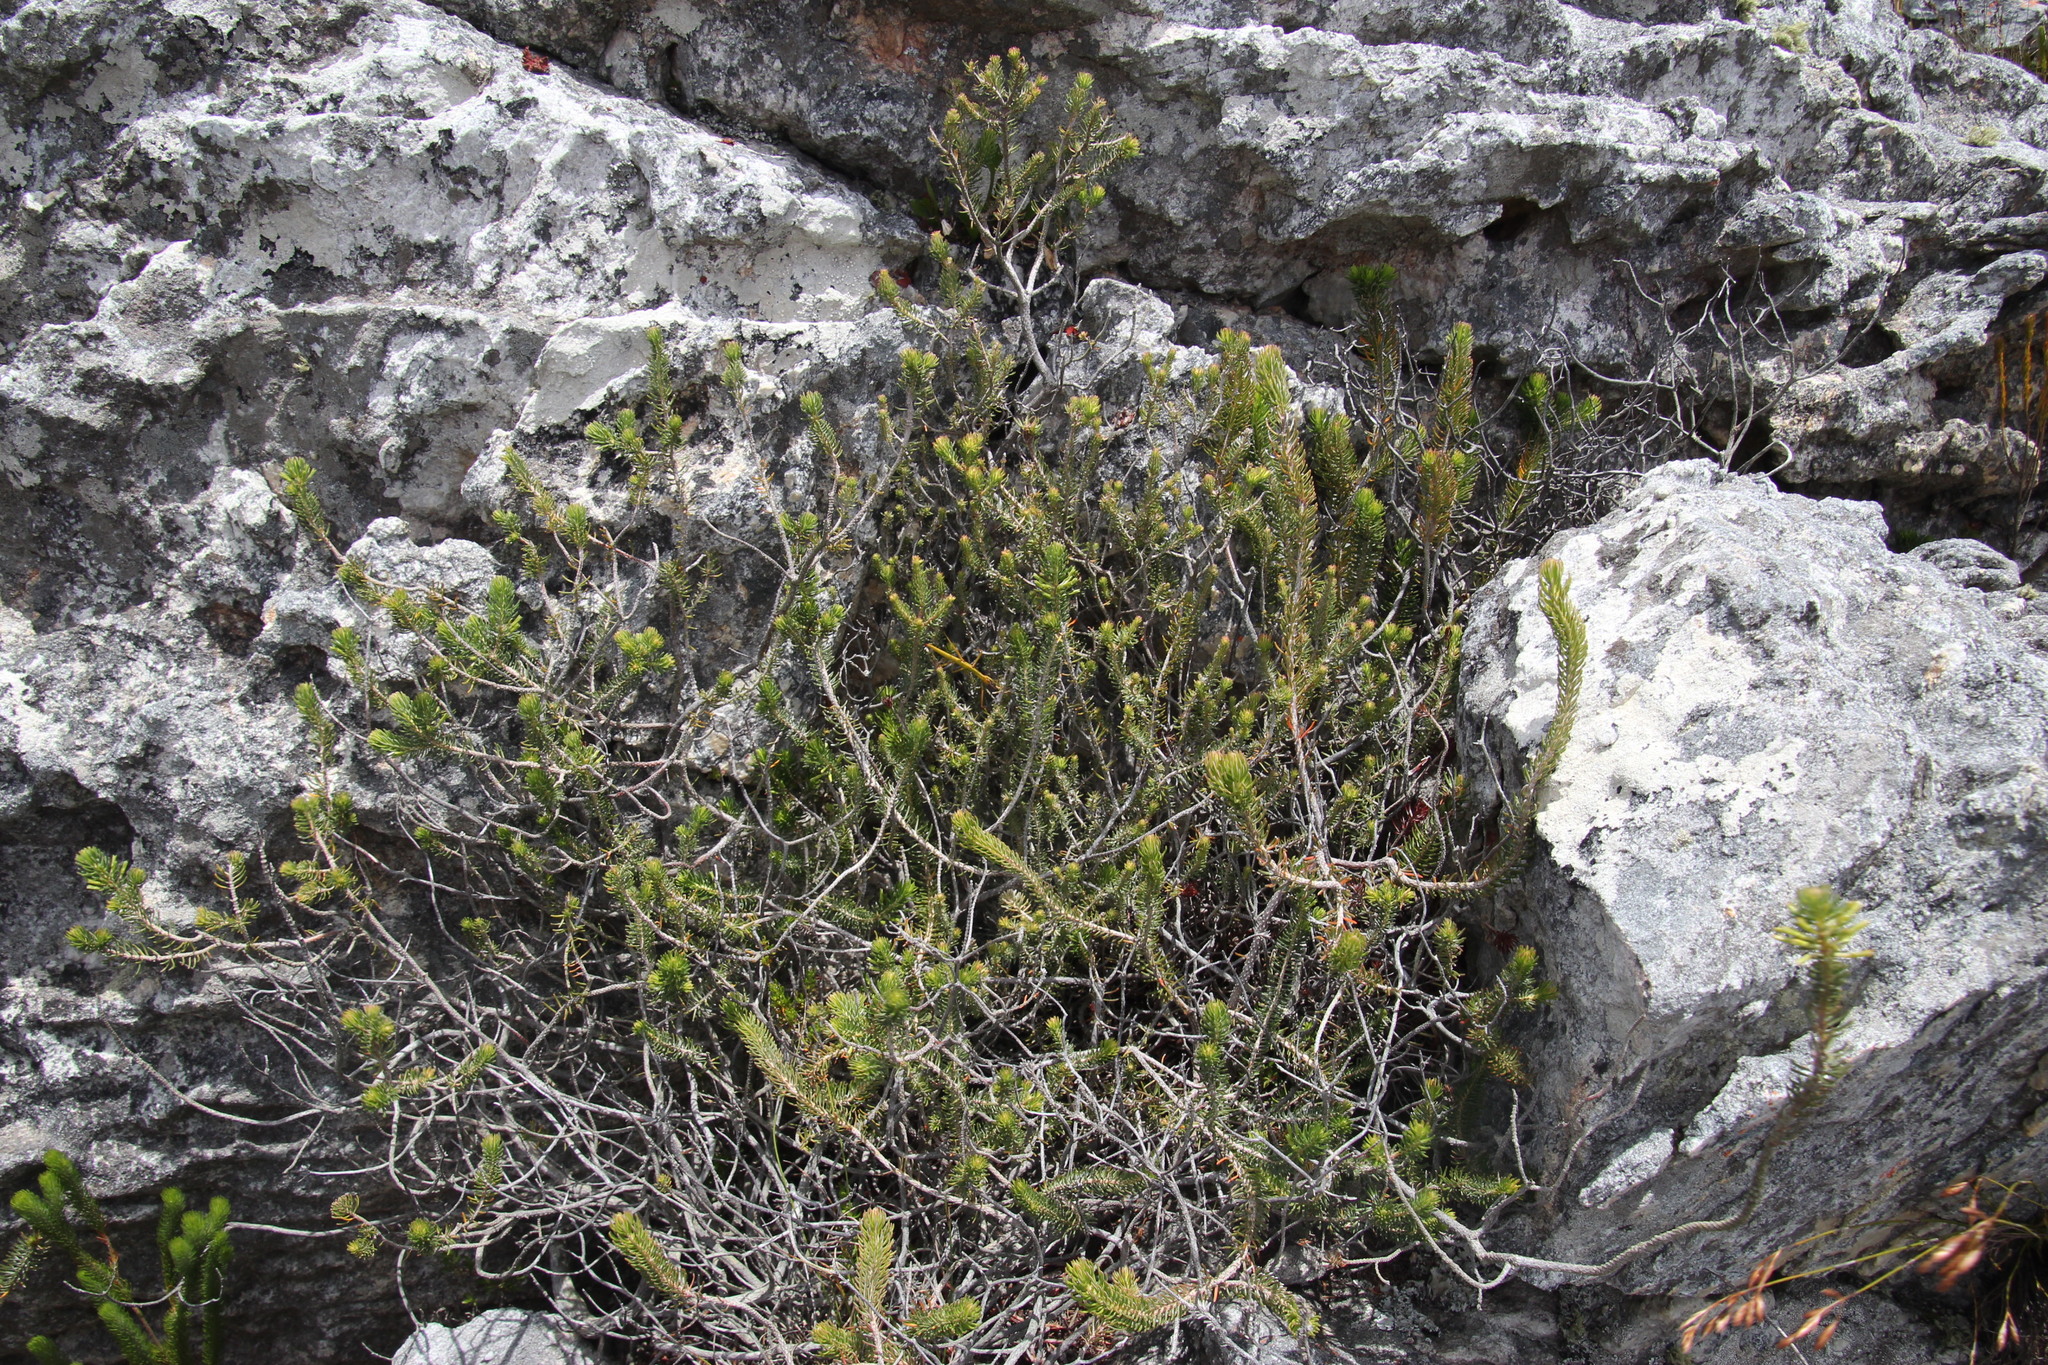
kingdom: Plantae
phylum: Tracheophyta
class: Magnoliopsida
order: Ericales
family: Ericaceae
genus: Erica
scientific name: Erica thomae
